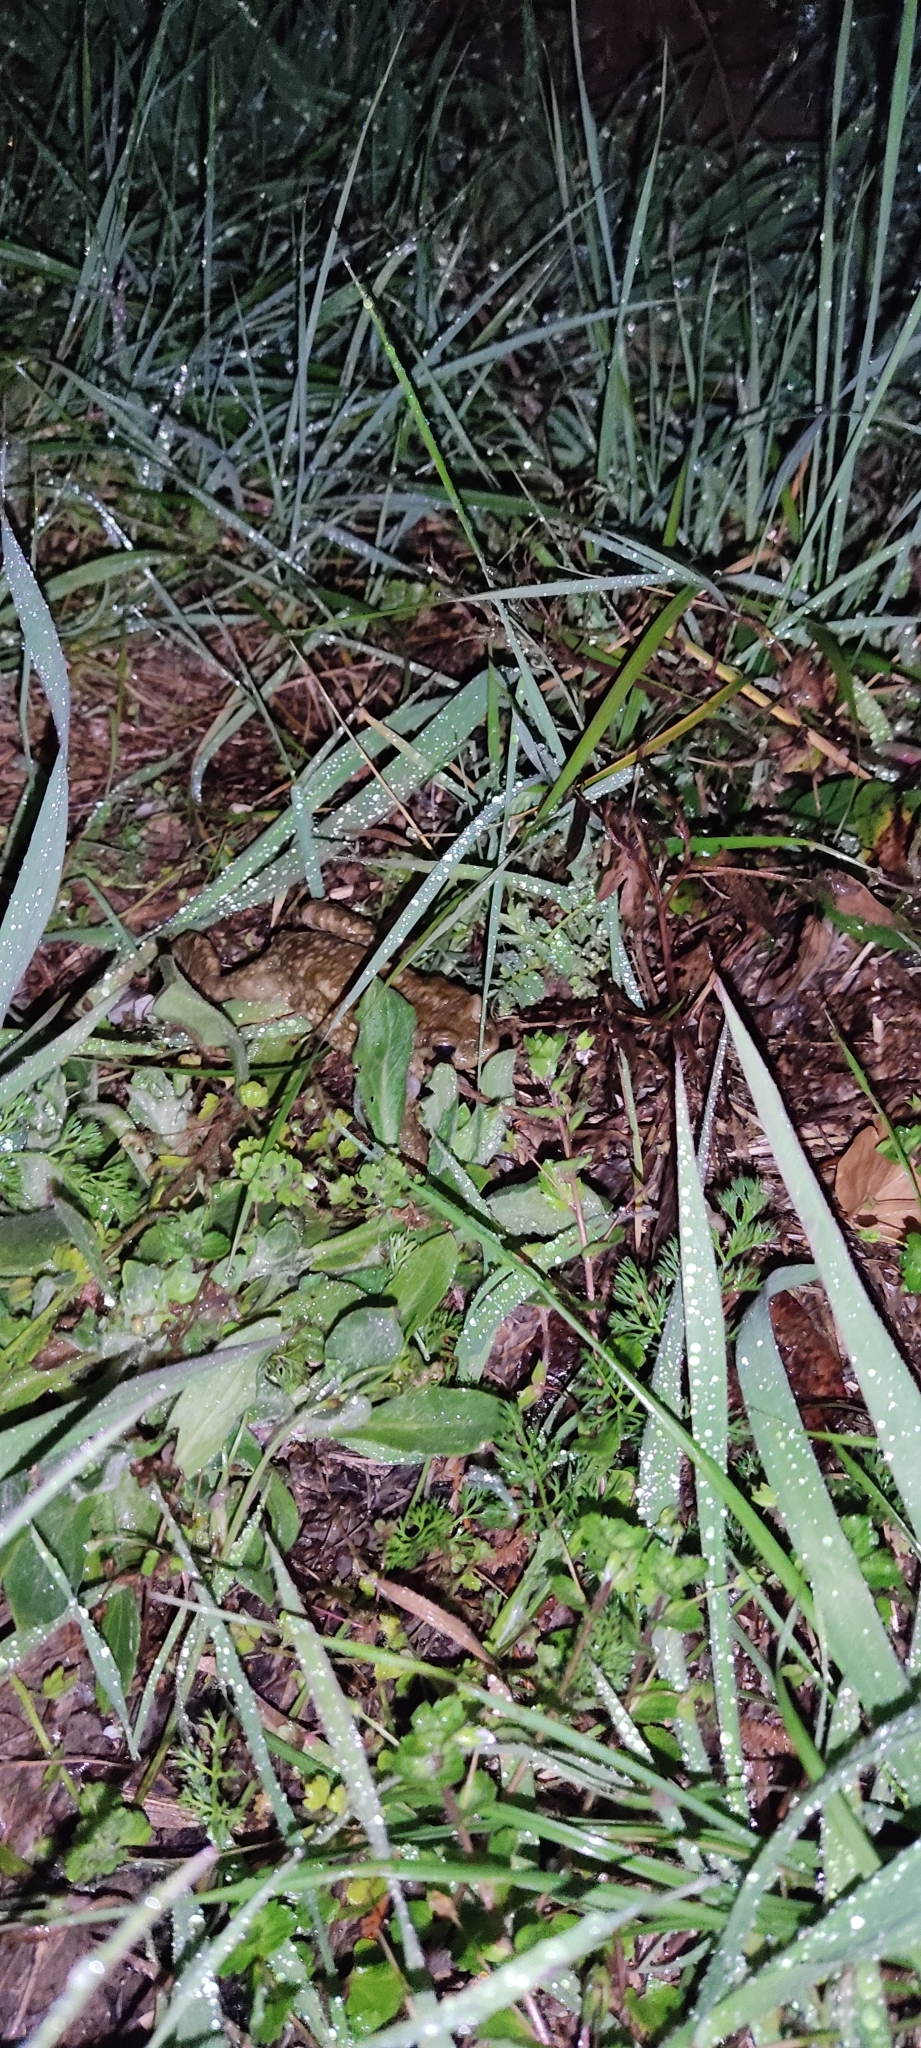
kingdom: Animalia
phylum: Chordata
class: Amphibia
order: Anura
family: Bufonidae
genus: Bufo
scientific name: Bufo spinosus
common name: Western common toad
